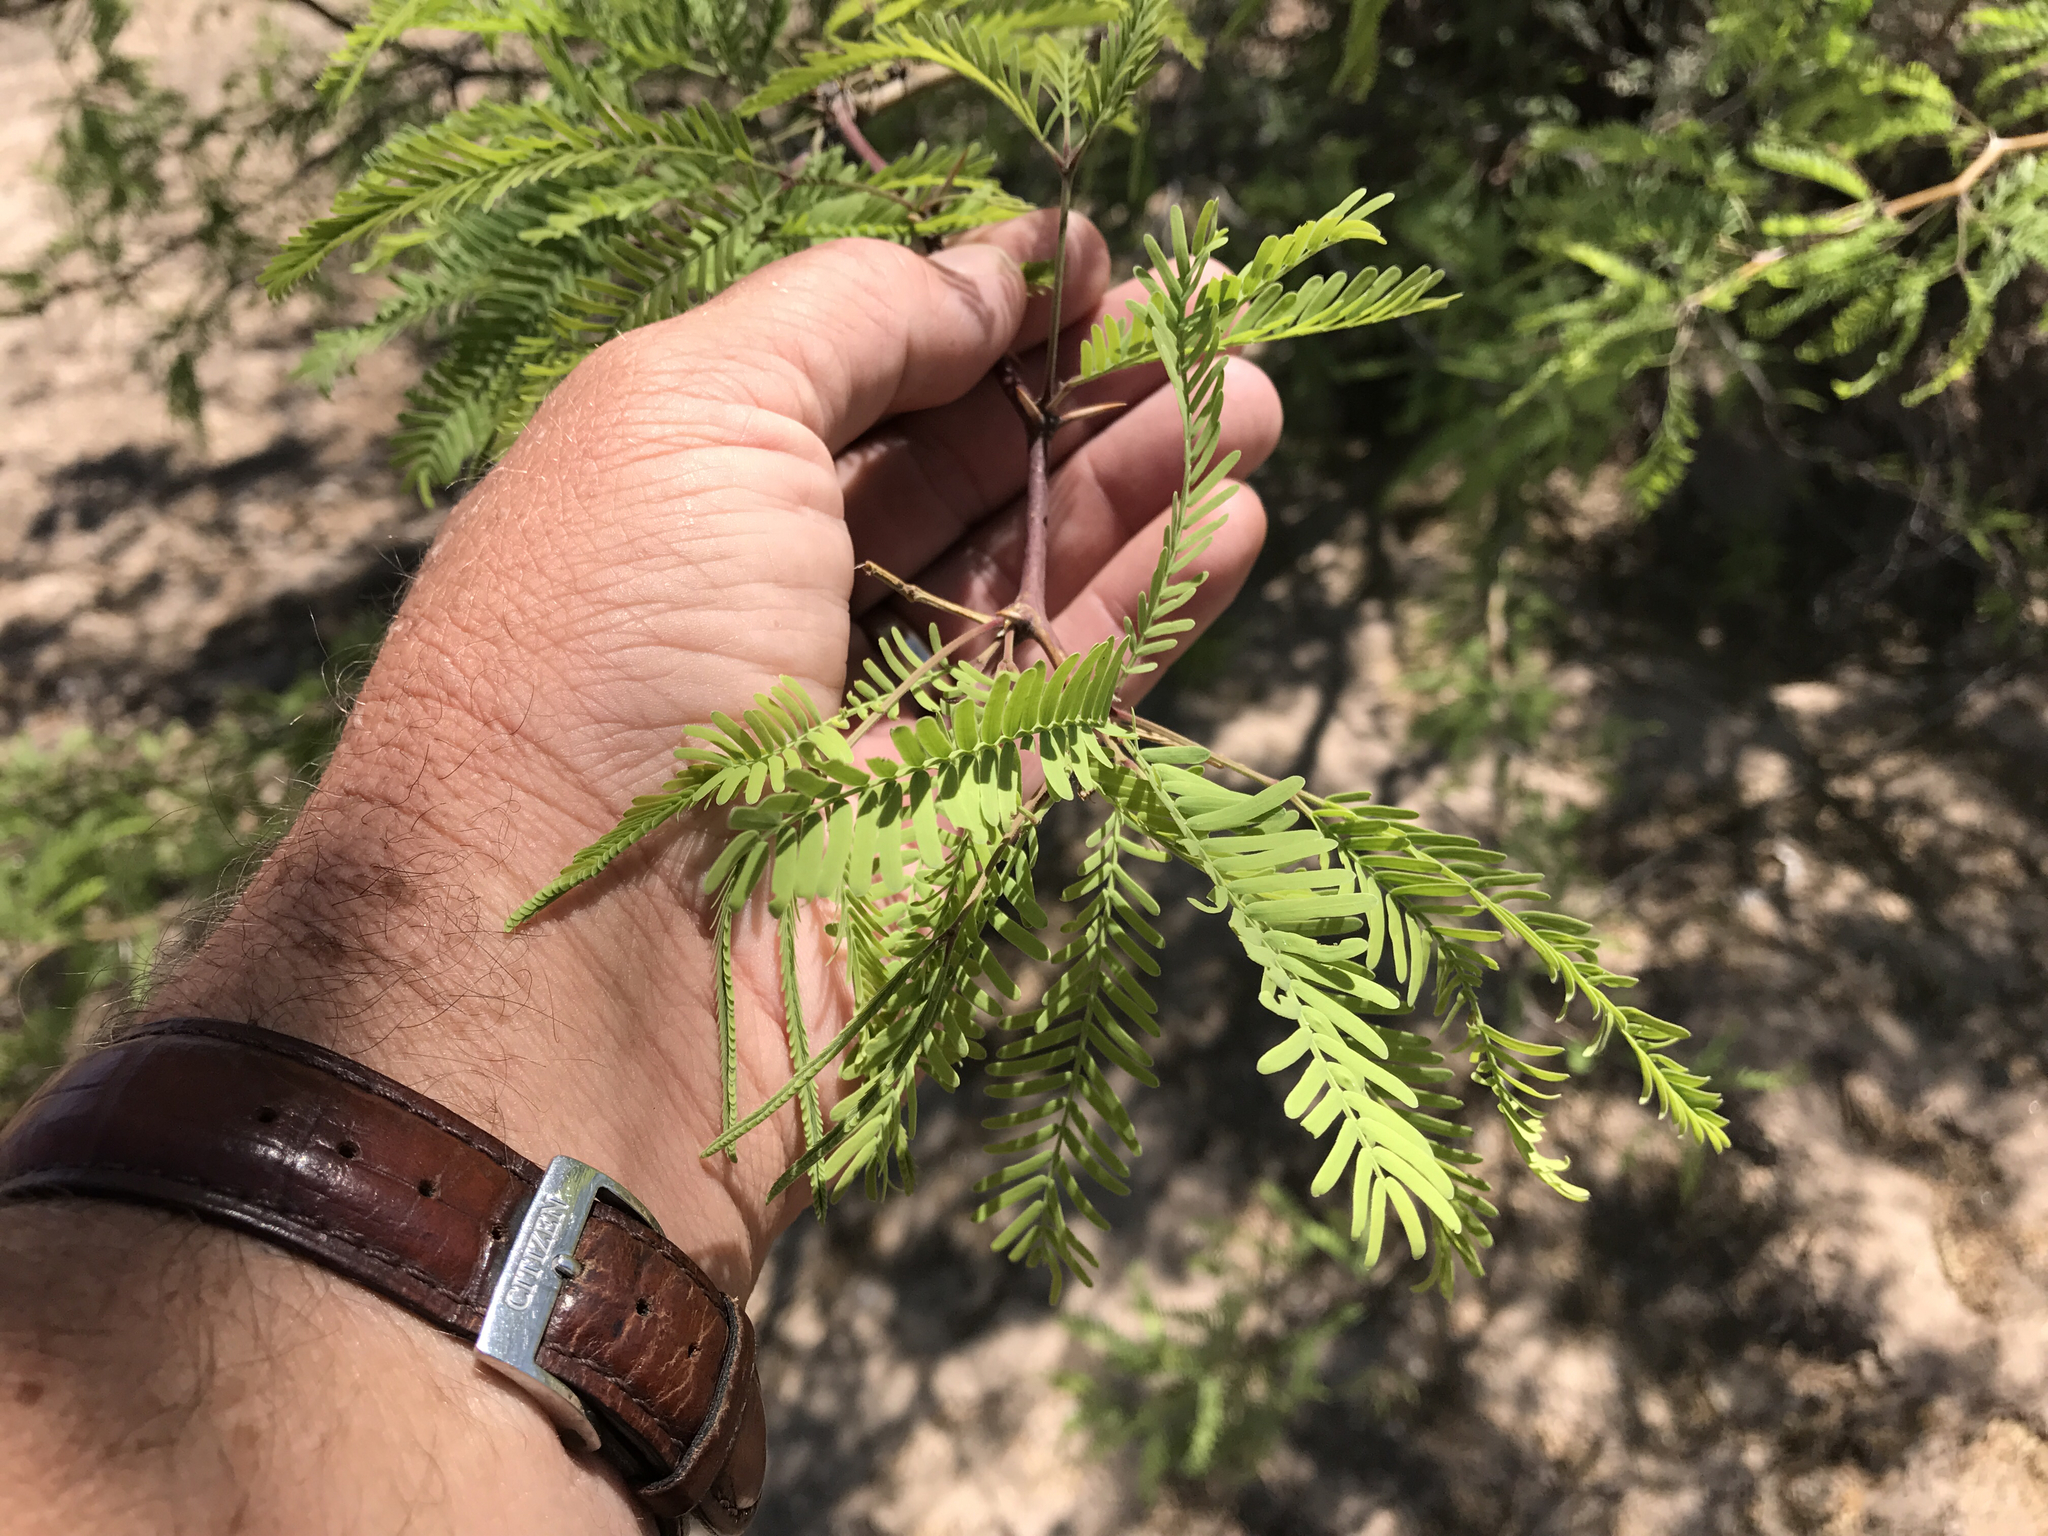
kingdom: Plantae
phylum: Tracheophyta
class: Magnoliopsida
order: Fabales
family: Fabaceae
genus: Prosopis
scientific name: Prosopis velutina
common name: Velvet mesquite
